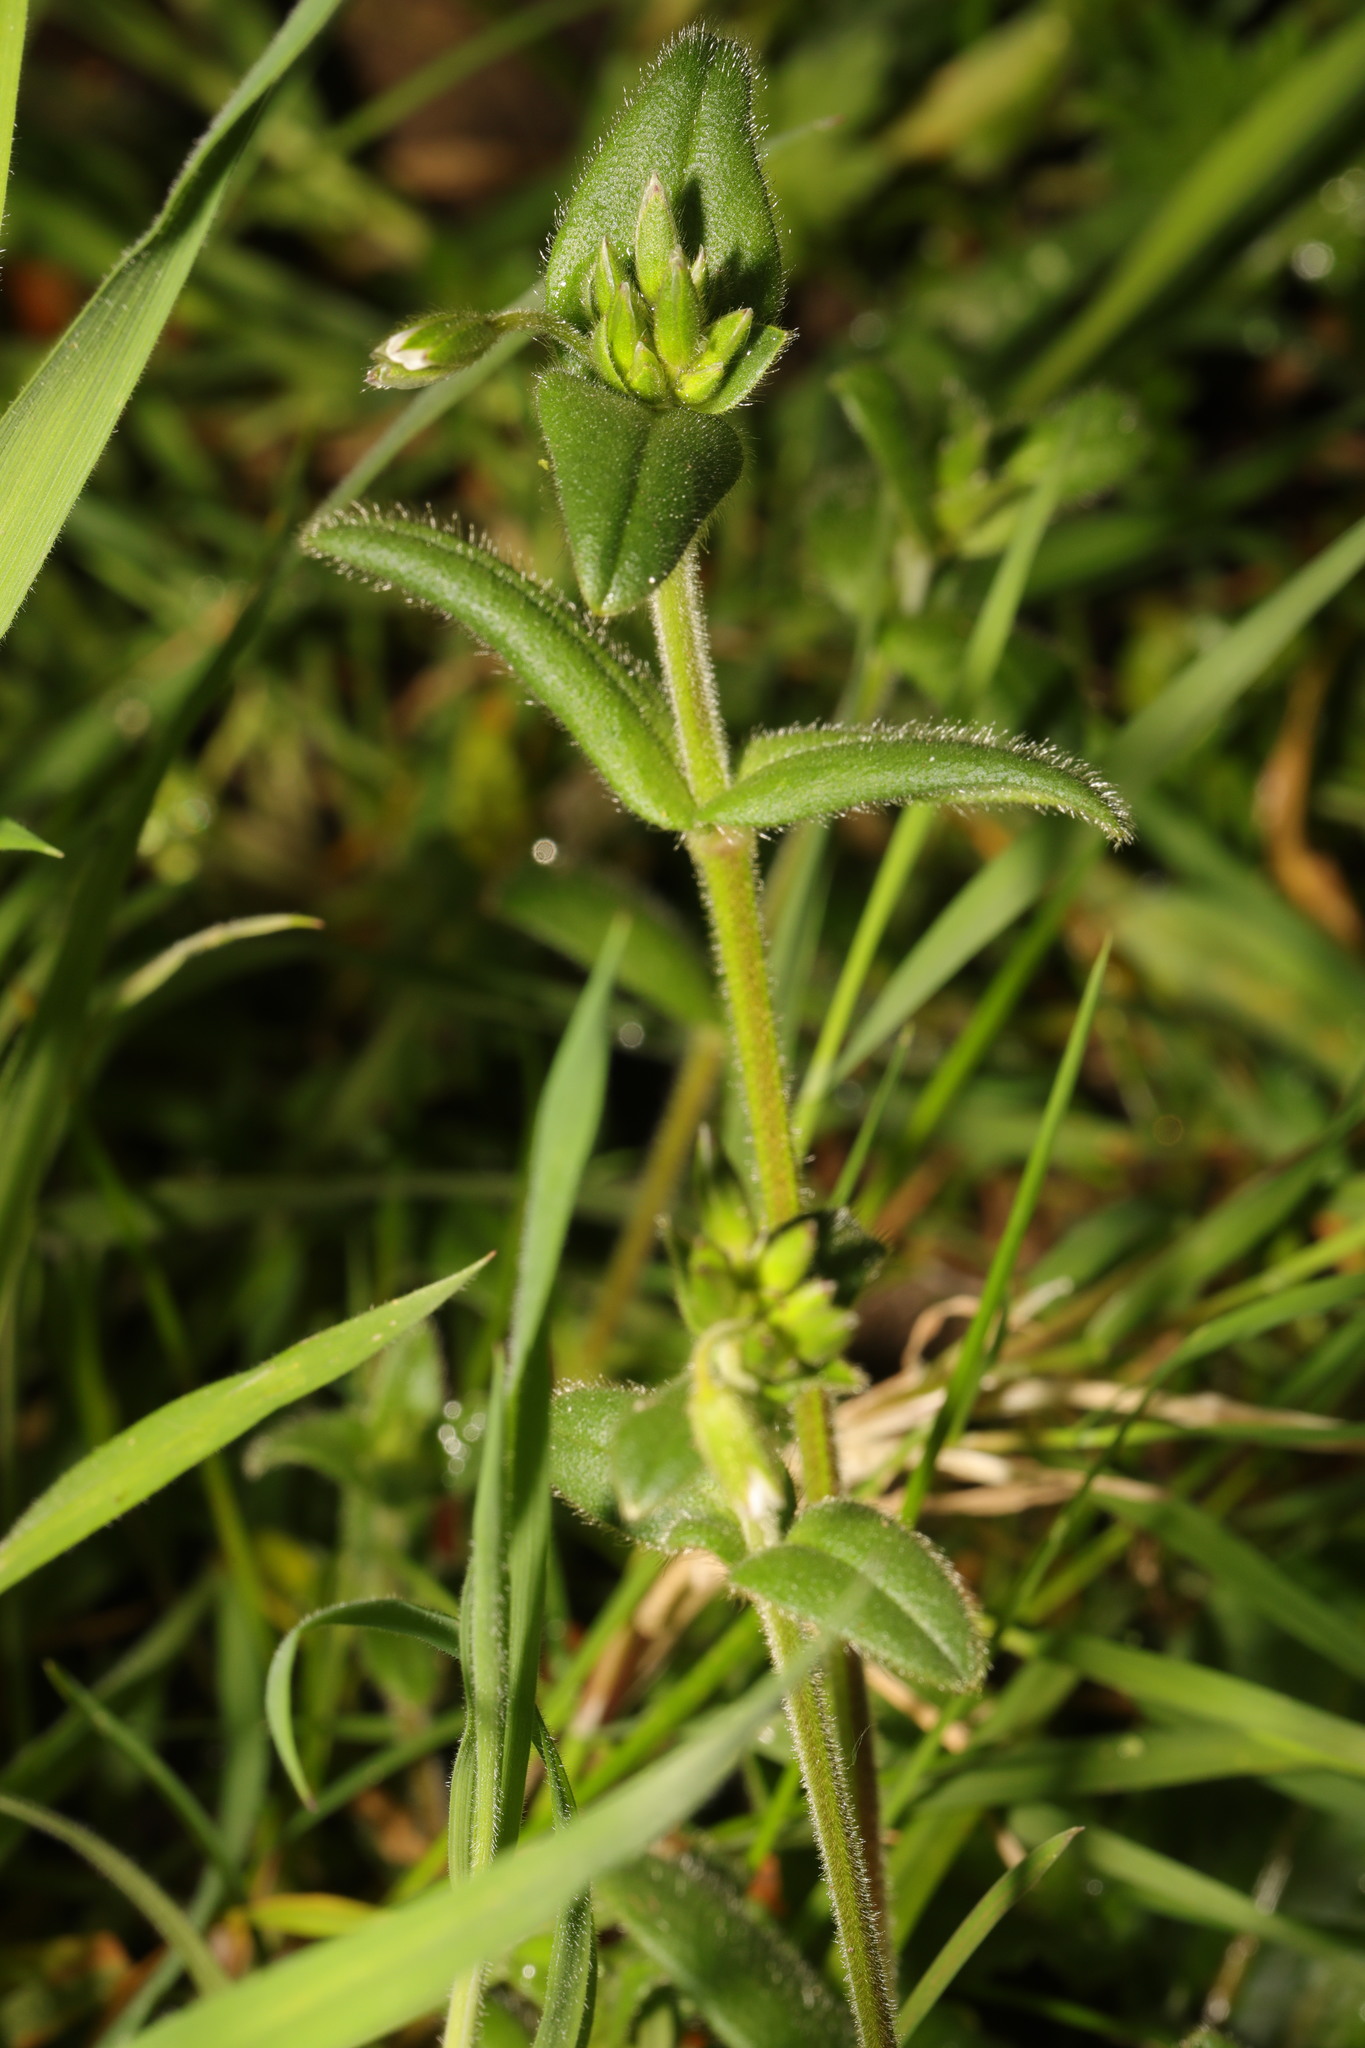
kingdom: Plantae
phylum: Tracheophyta
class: Magnoliopsida
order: Caryophyllales
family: Caryophyllaceae
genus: Cerastium
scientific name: Cerastium fontanum
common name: Common mouse-ear
